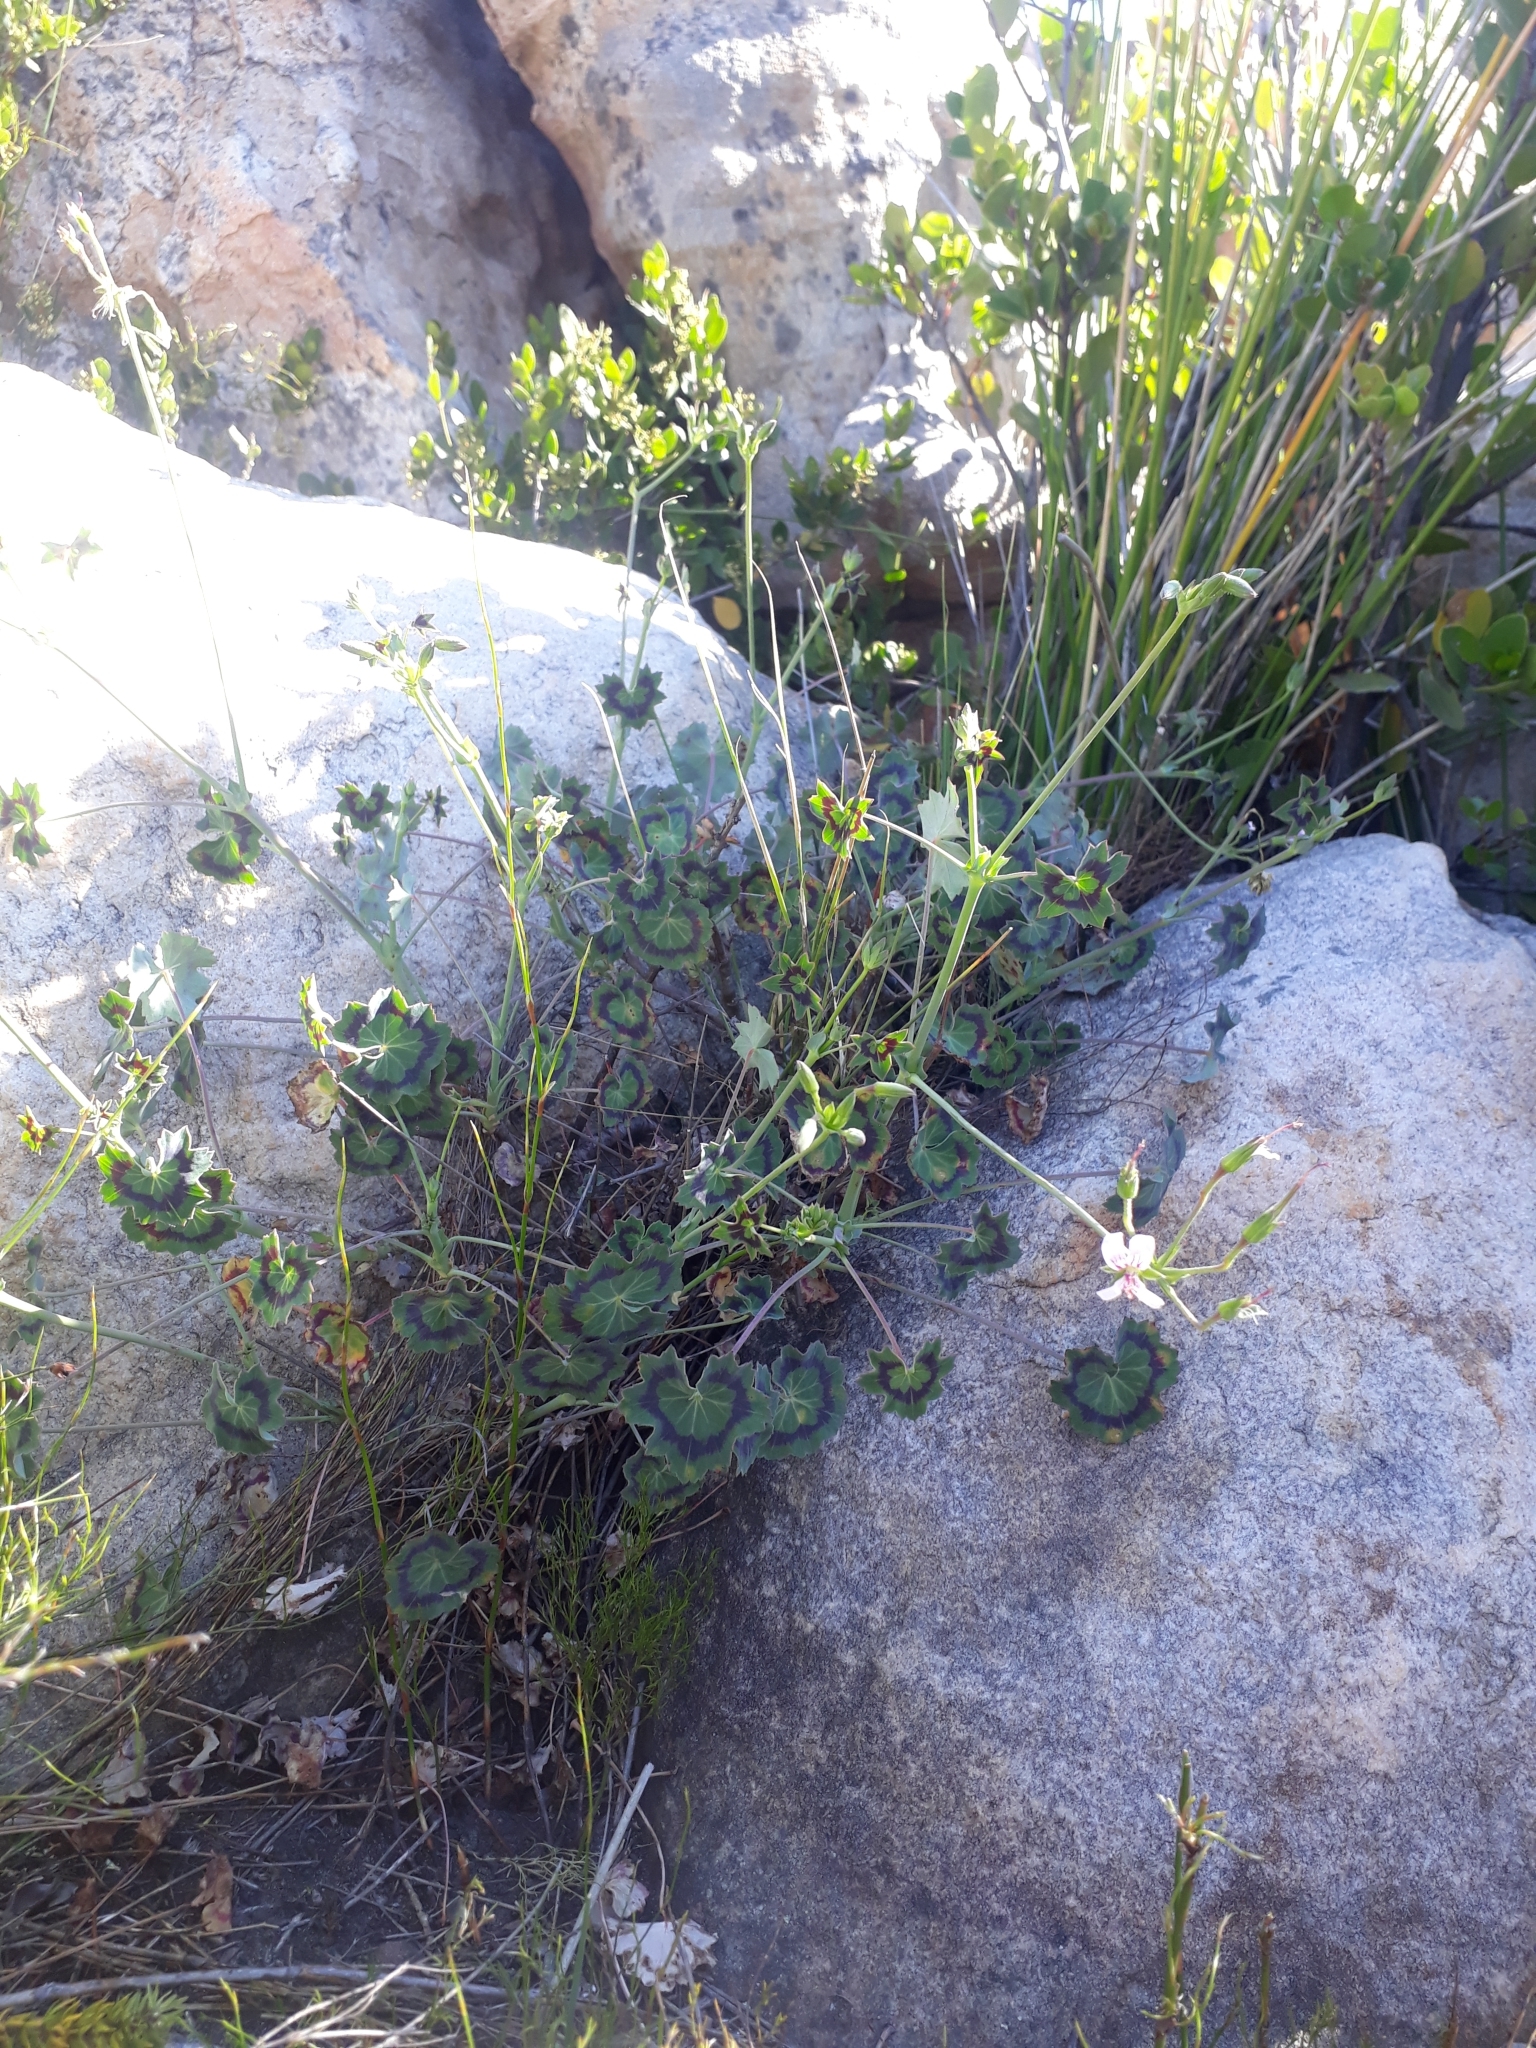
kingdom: Plantae
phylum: Tracheophyta
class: Magnoliopsida
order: Geraniales
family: Geraniaceae
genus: Pelargonium
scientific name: Pelargonium tabulare
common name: Table mountain pelargonium
